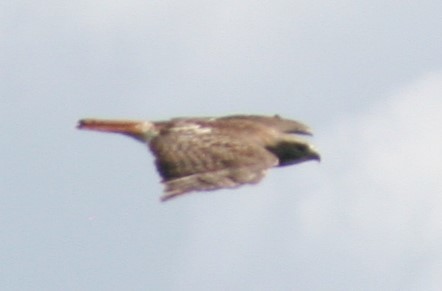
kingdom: Animalia
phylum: Chordata
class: Aves
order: Accipitriformes
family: Accipitridae
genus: Buteo
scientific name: Buteo jamaicensis
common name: Red-tailed hawk
